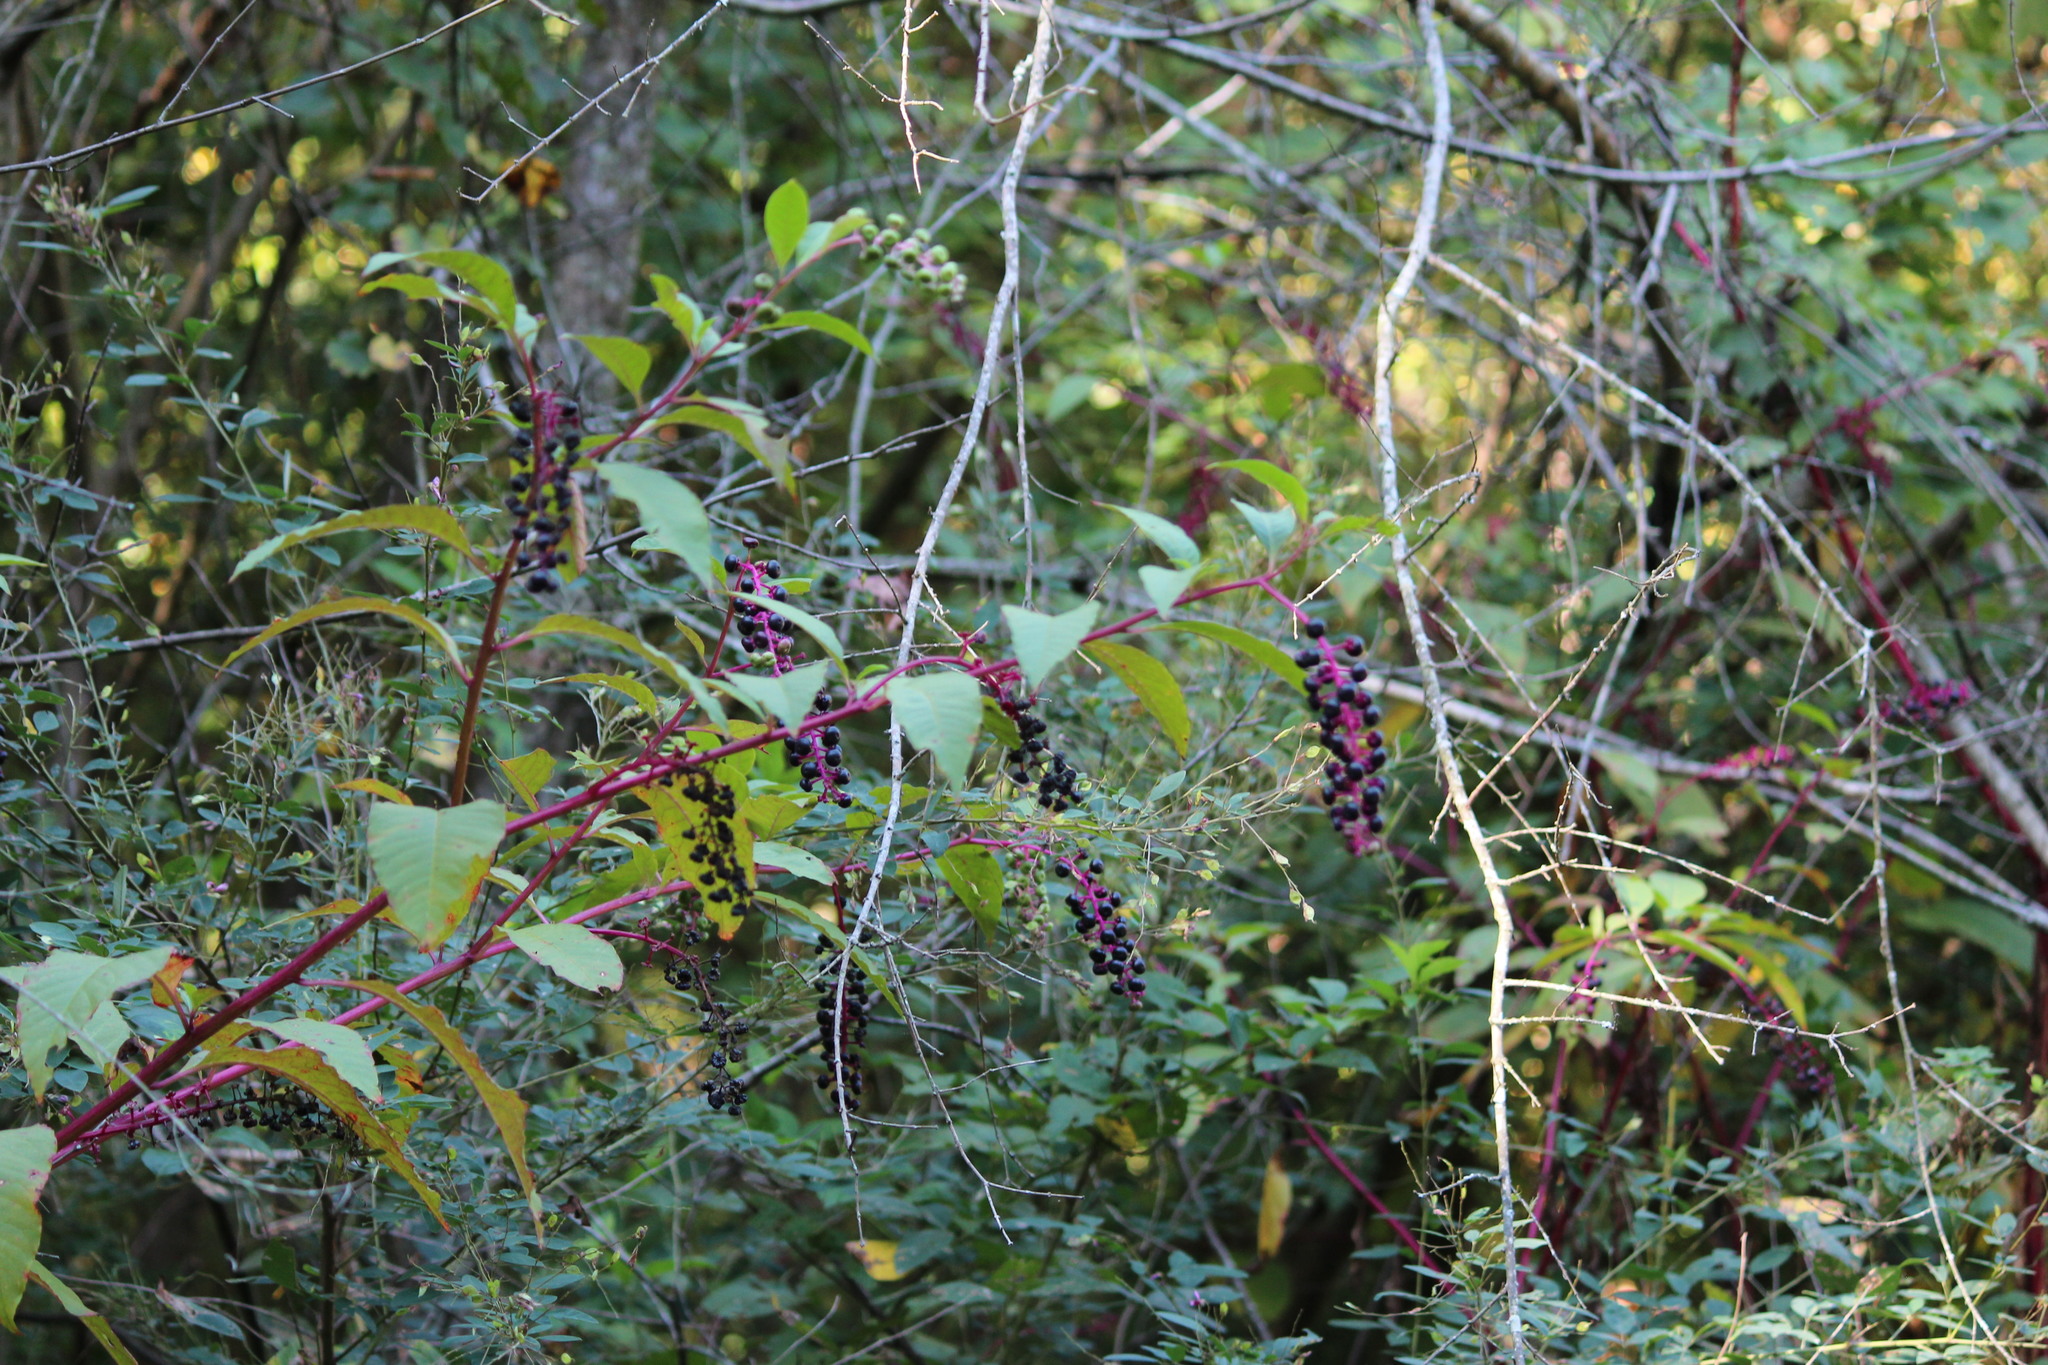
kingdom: Plantae
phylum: Tracheophyta
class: Magnoliopsida
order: Caryophyllales
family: Phytolaccaceae
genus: Phytolacca
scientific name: Phytolacca americana
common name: American pokeweed
